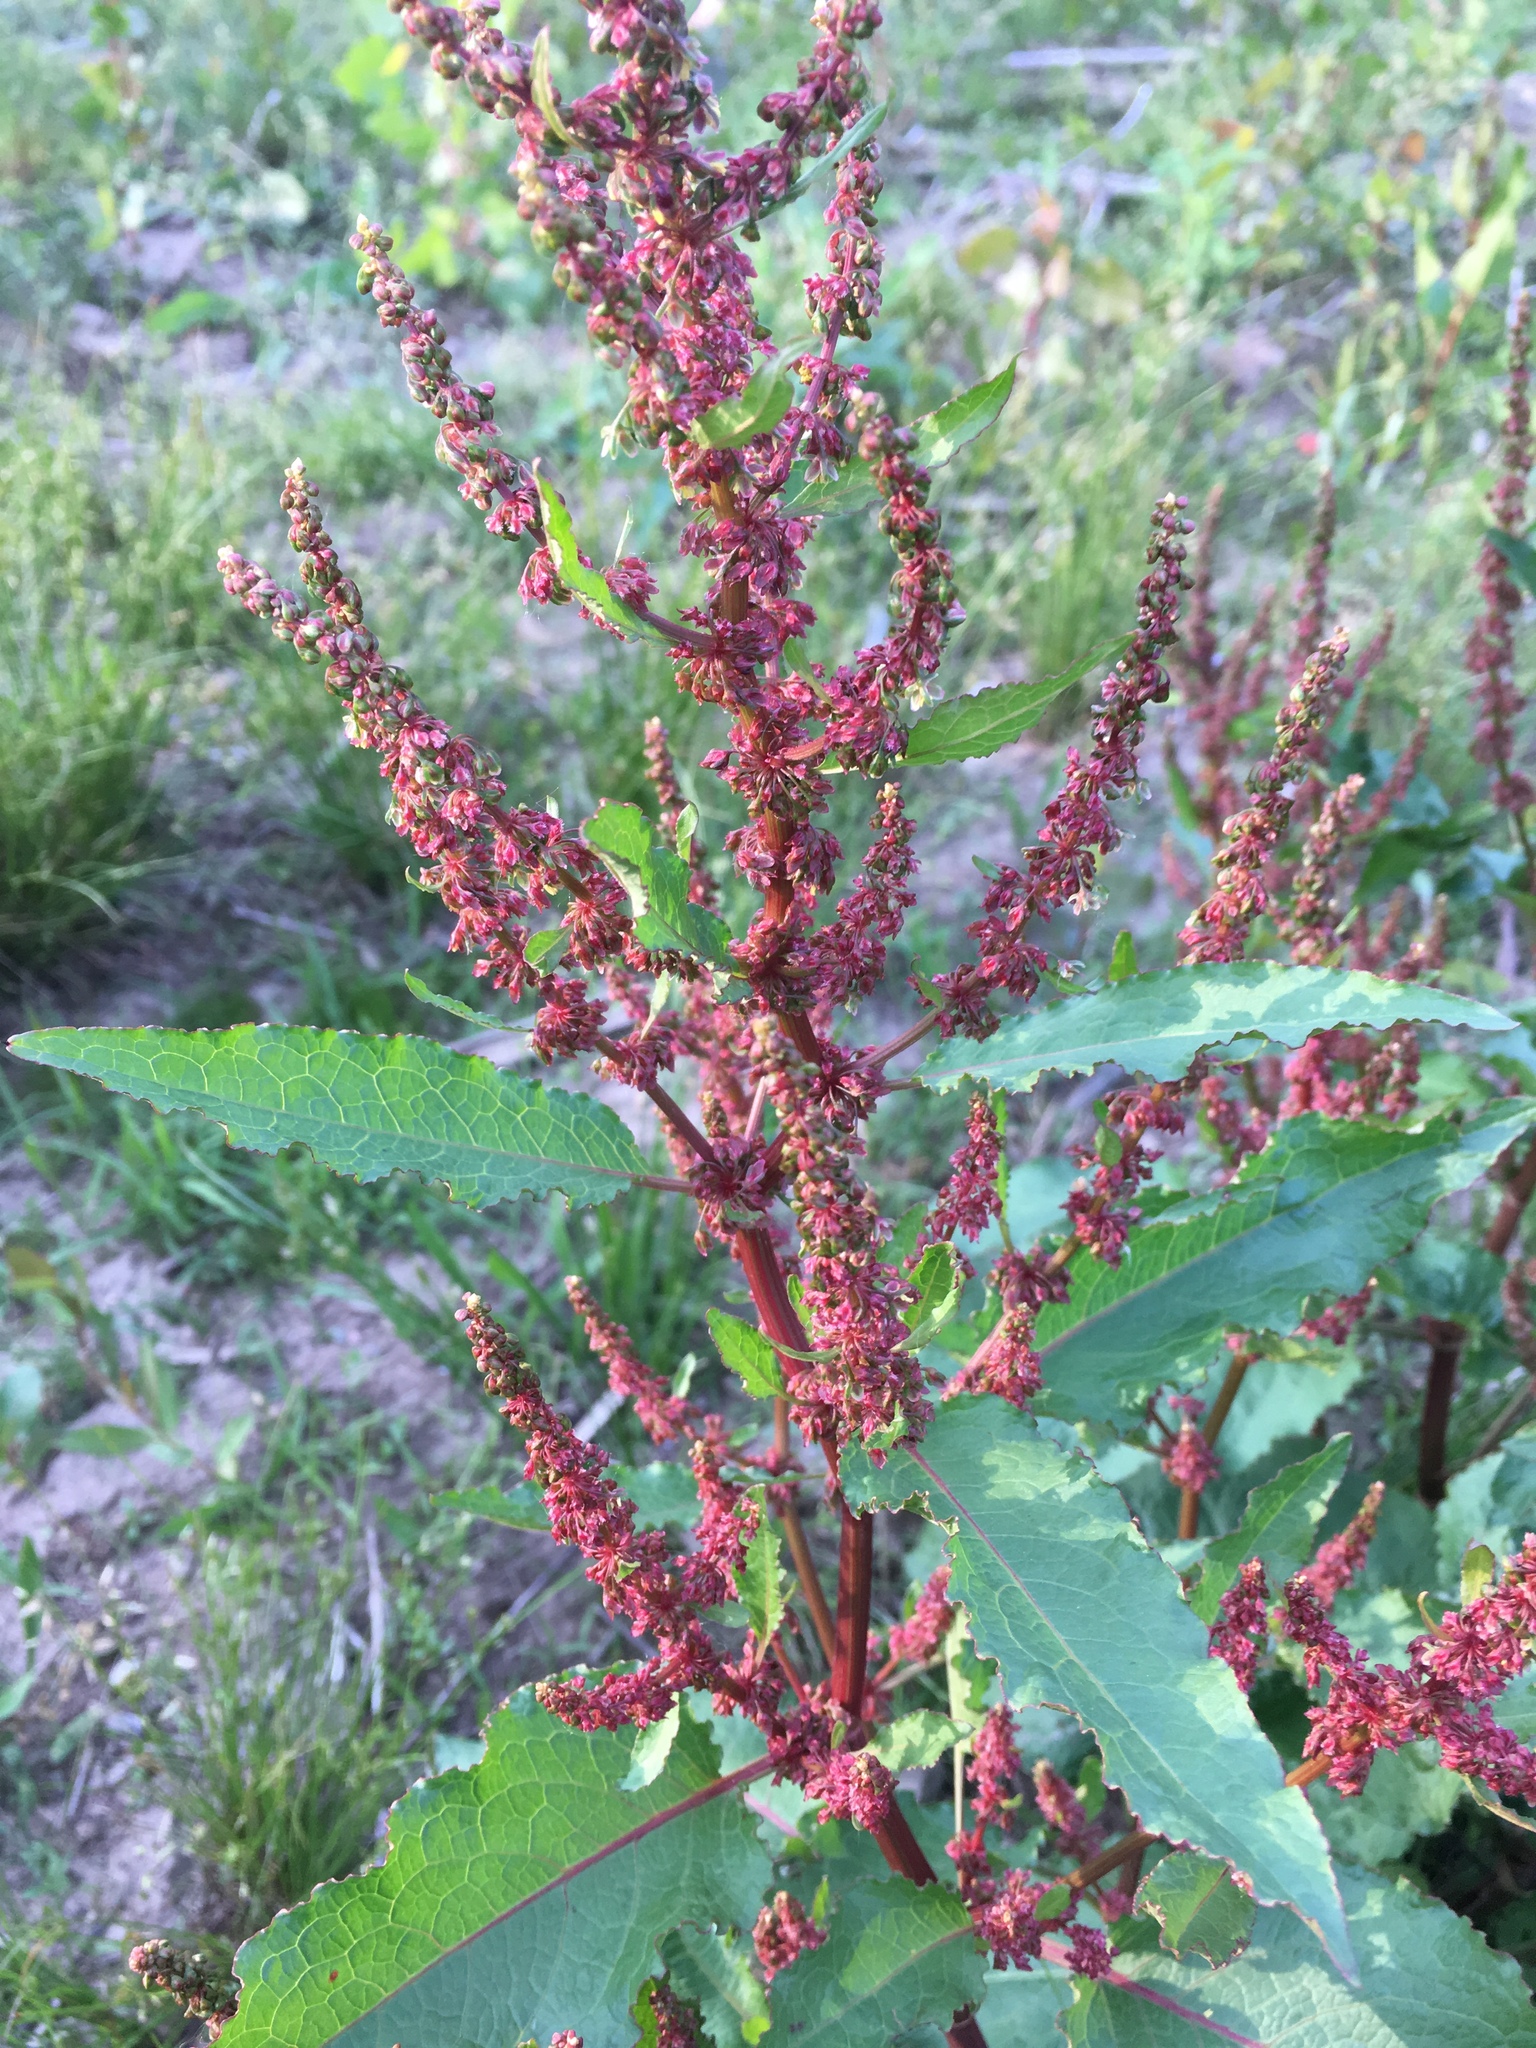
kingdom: Plantae
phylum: Tracheophyta
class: Magnoliopsida
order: Caryophyllales
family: Polygonaceae
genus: Rumex
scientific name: Rumex crispus
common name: Curled dock
